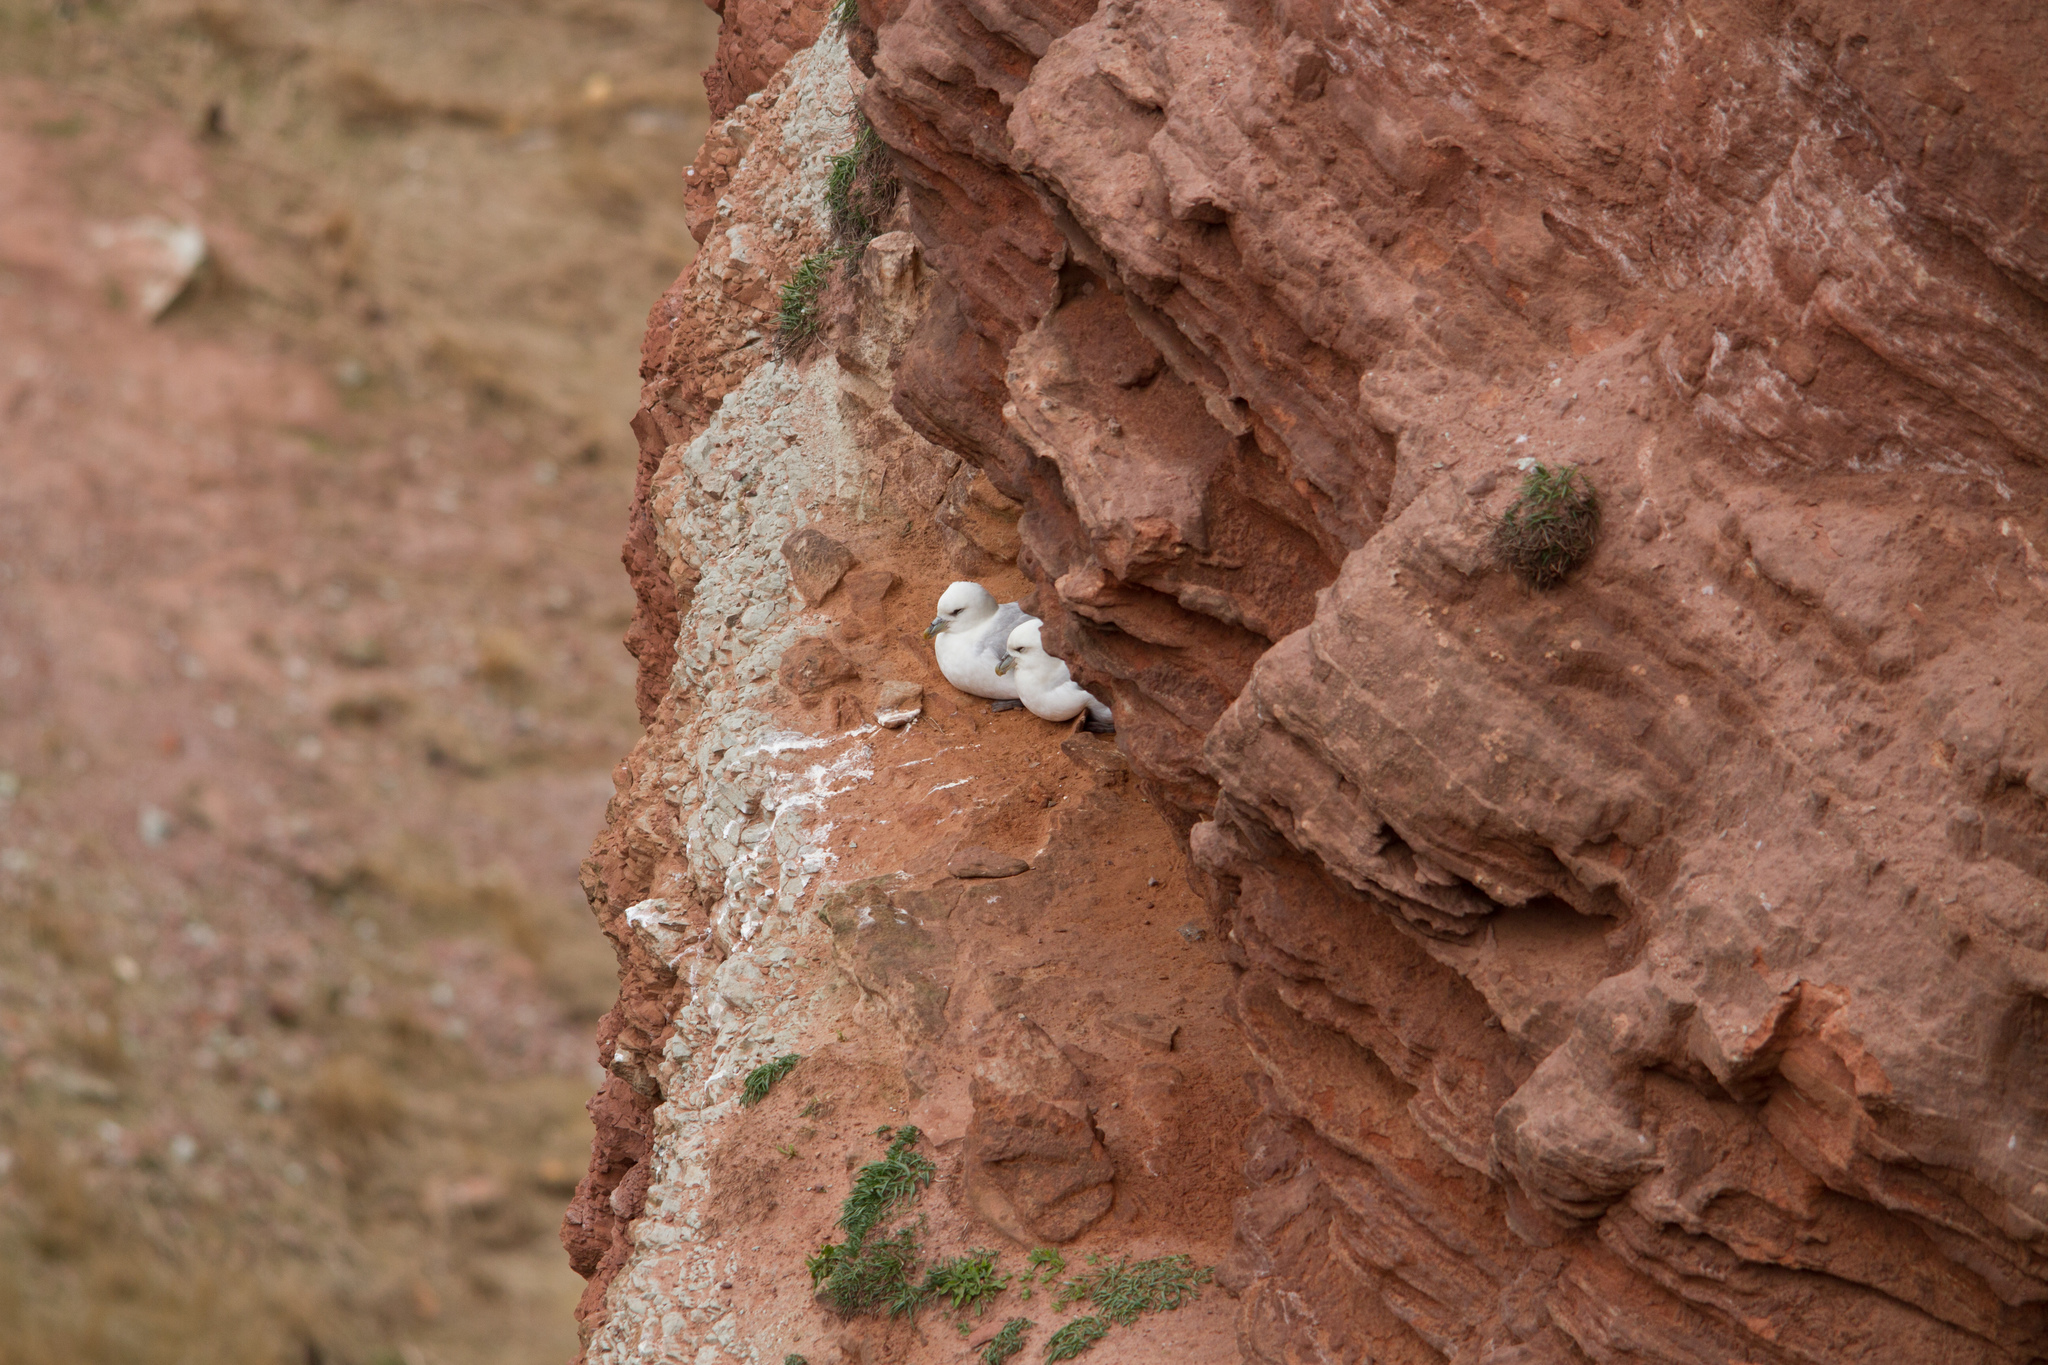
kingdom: Animalia
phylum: Chordata
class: Aves
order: Procellariiformes
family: Procellariidae
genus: Fulmarus
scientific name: Fulmarus glacialis
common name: Northern fulmar
